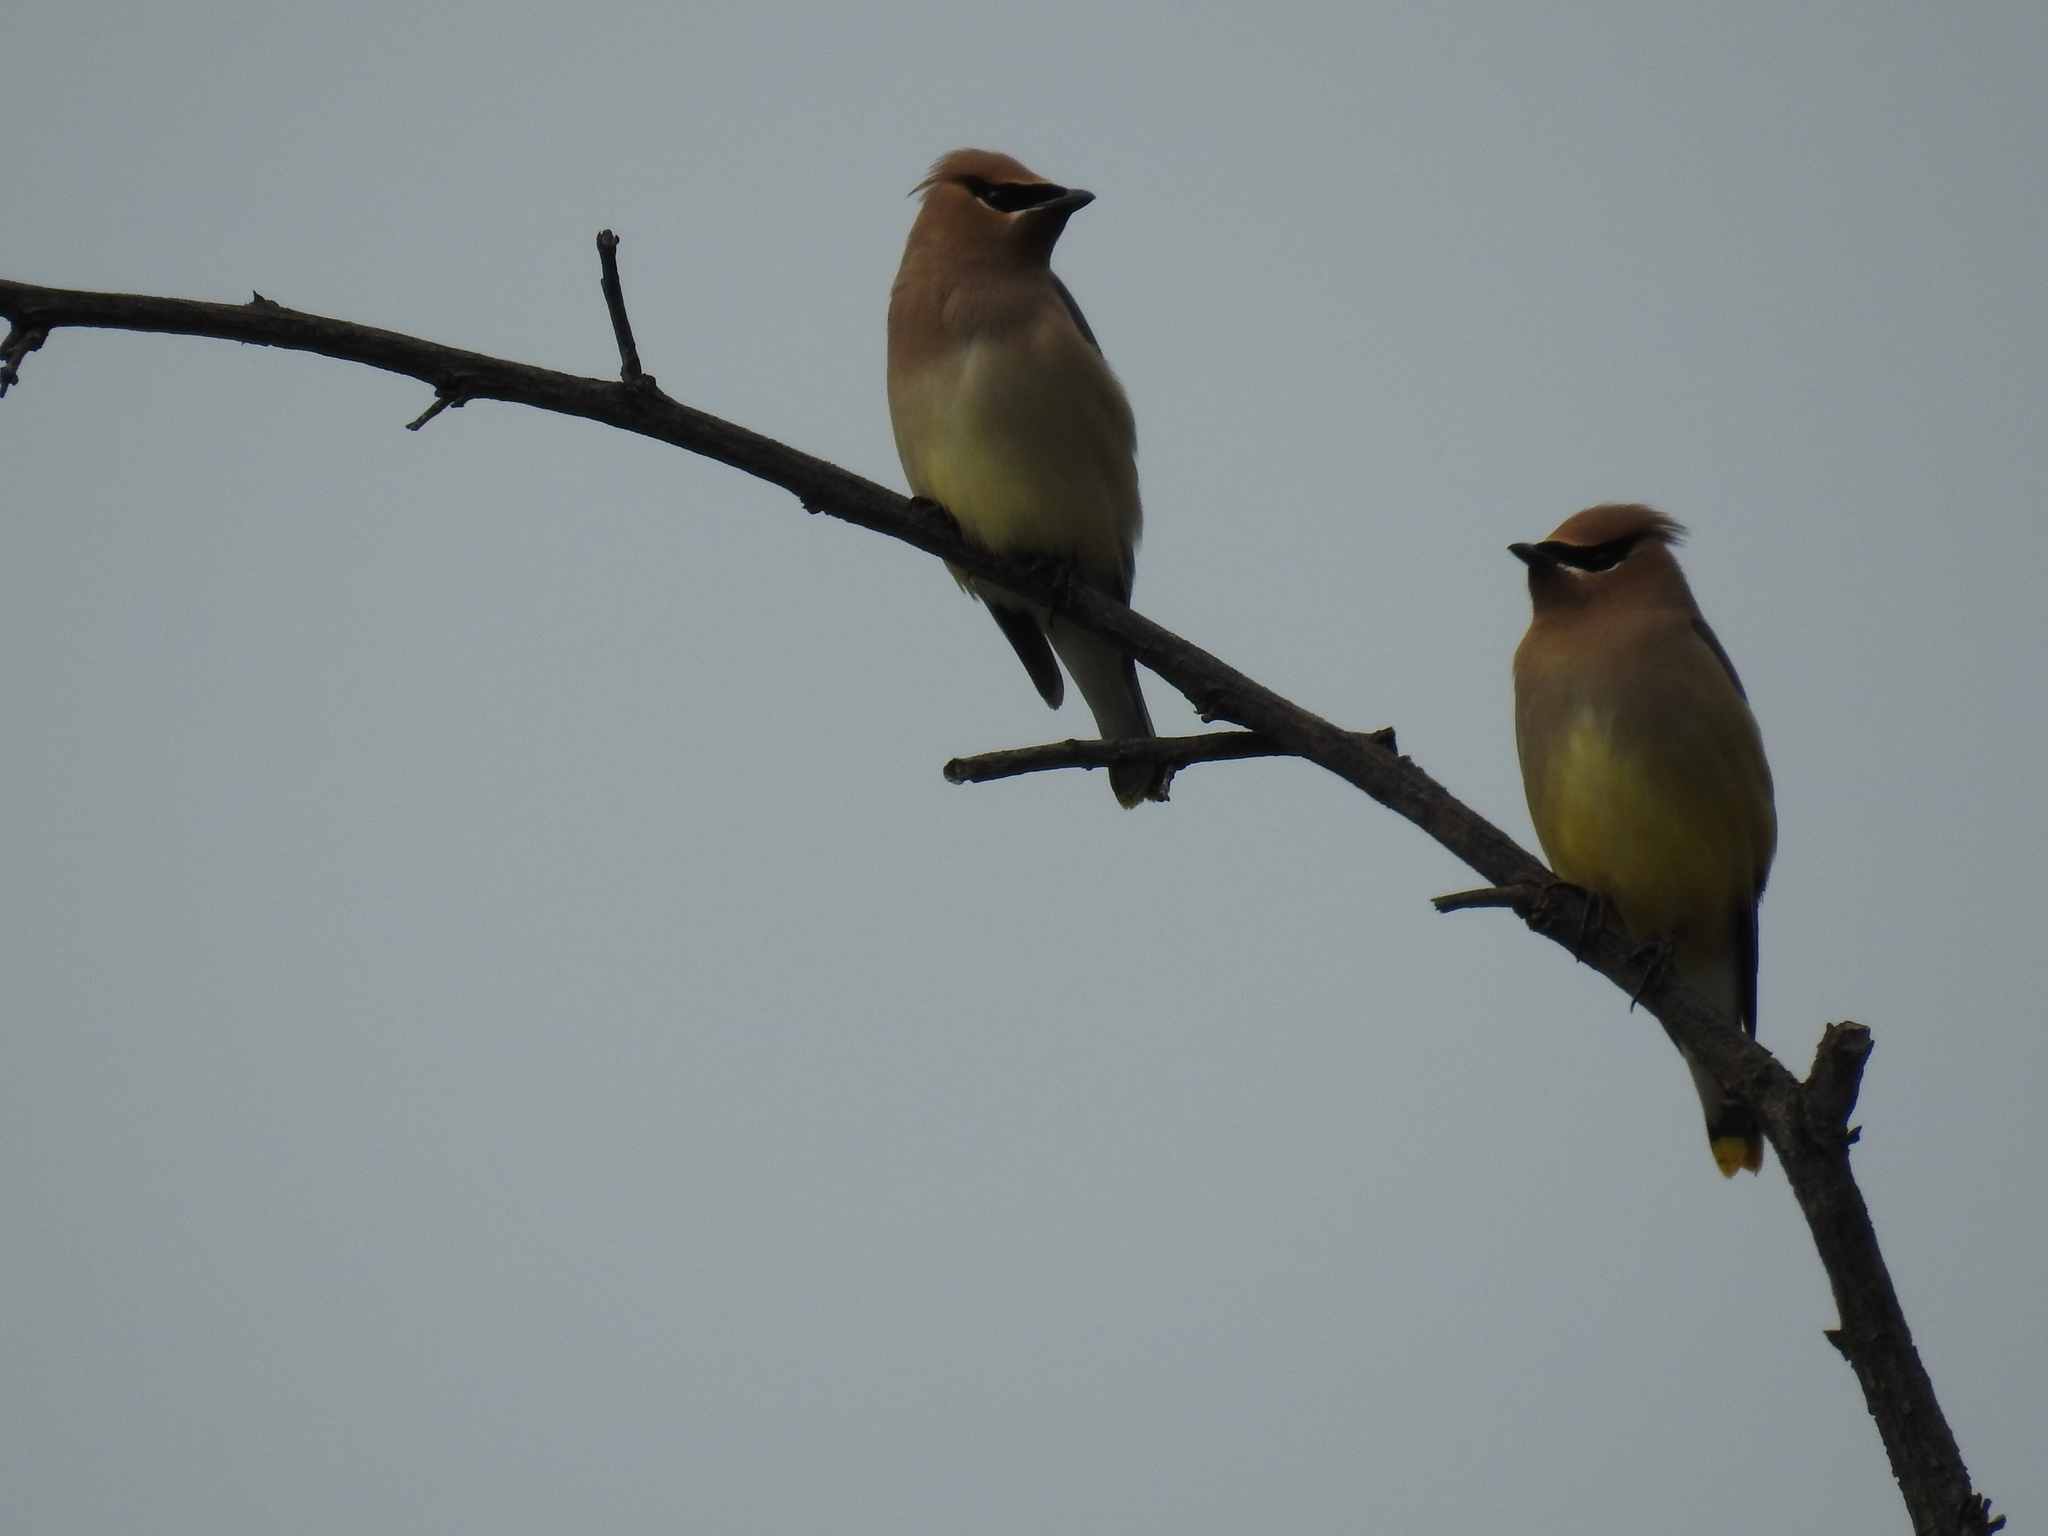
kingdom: Animalia
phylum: Chordata
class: Aves
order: Passeriformes
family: Bombycillidae
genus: Bombycilla
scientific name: Bombycilla cedrorum
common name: Cedar waxwing
